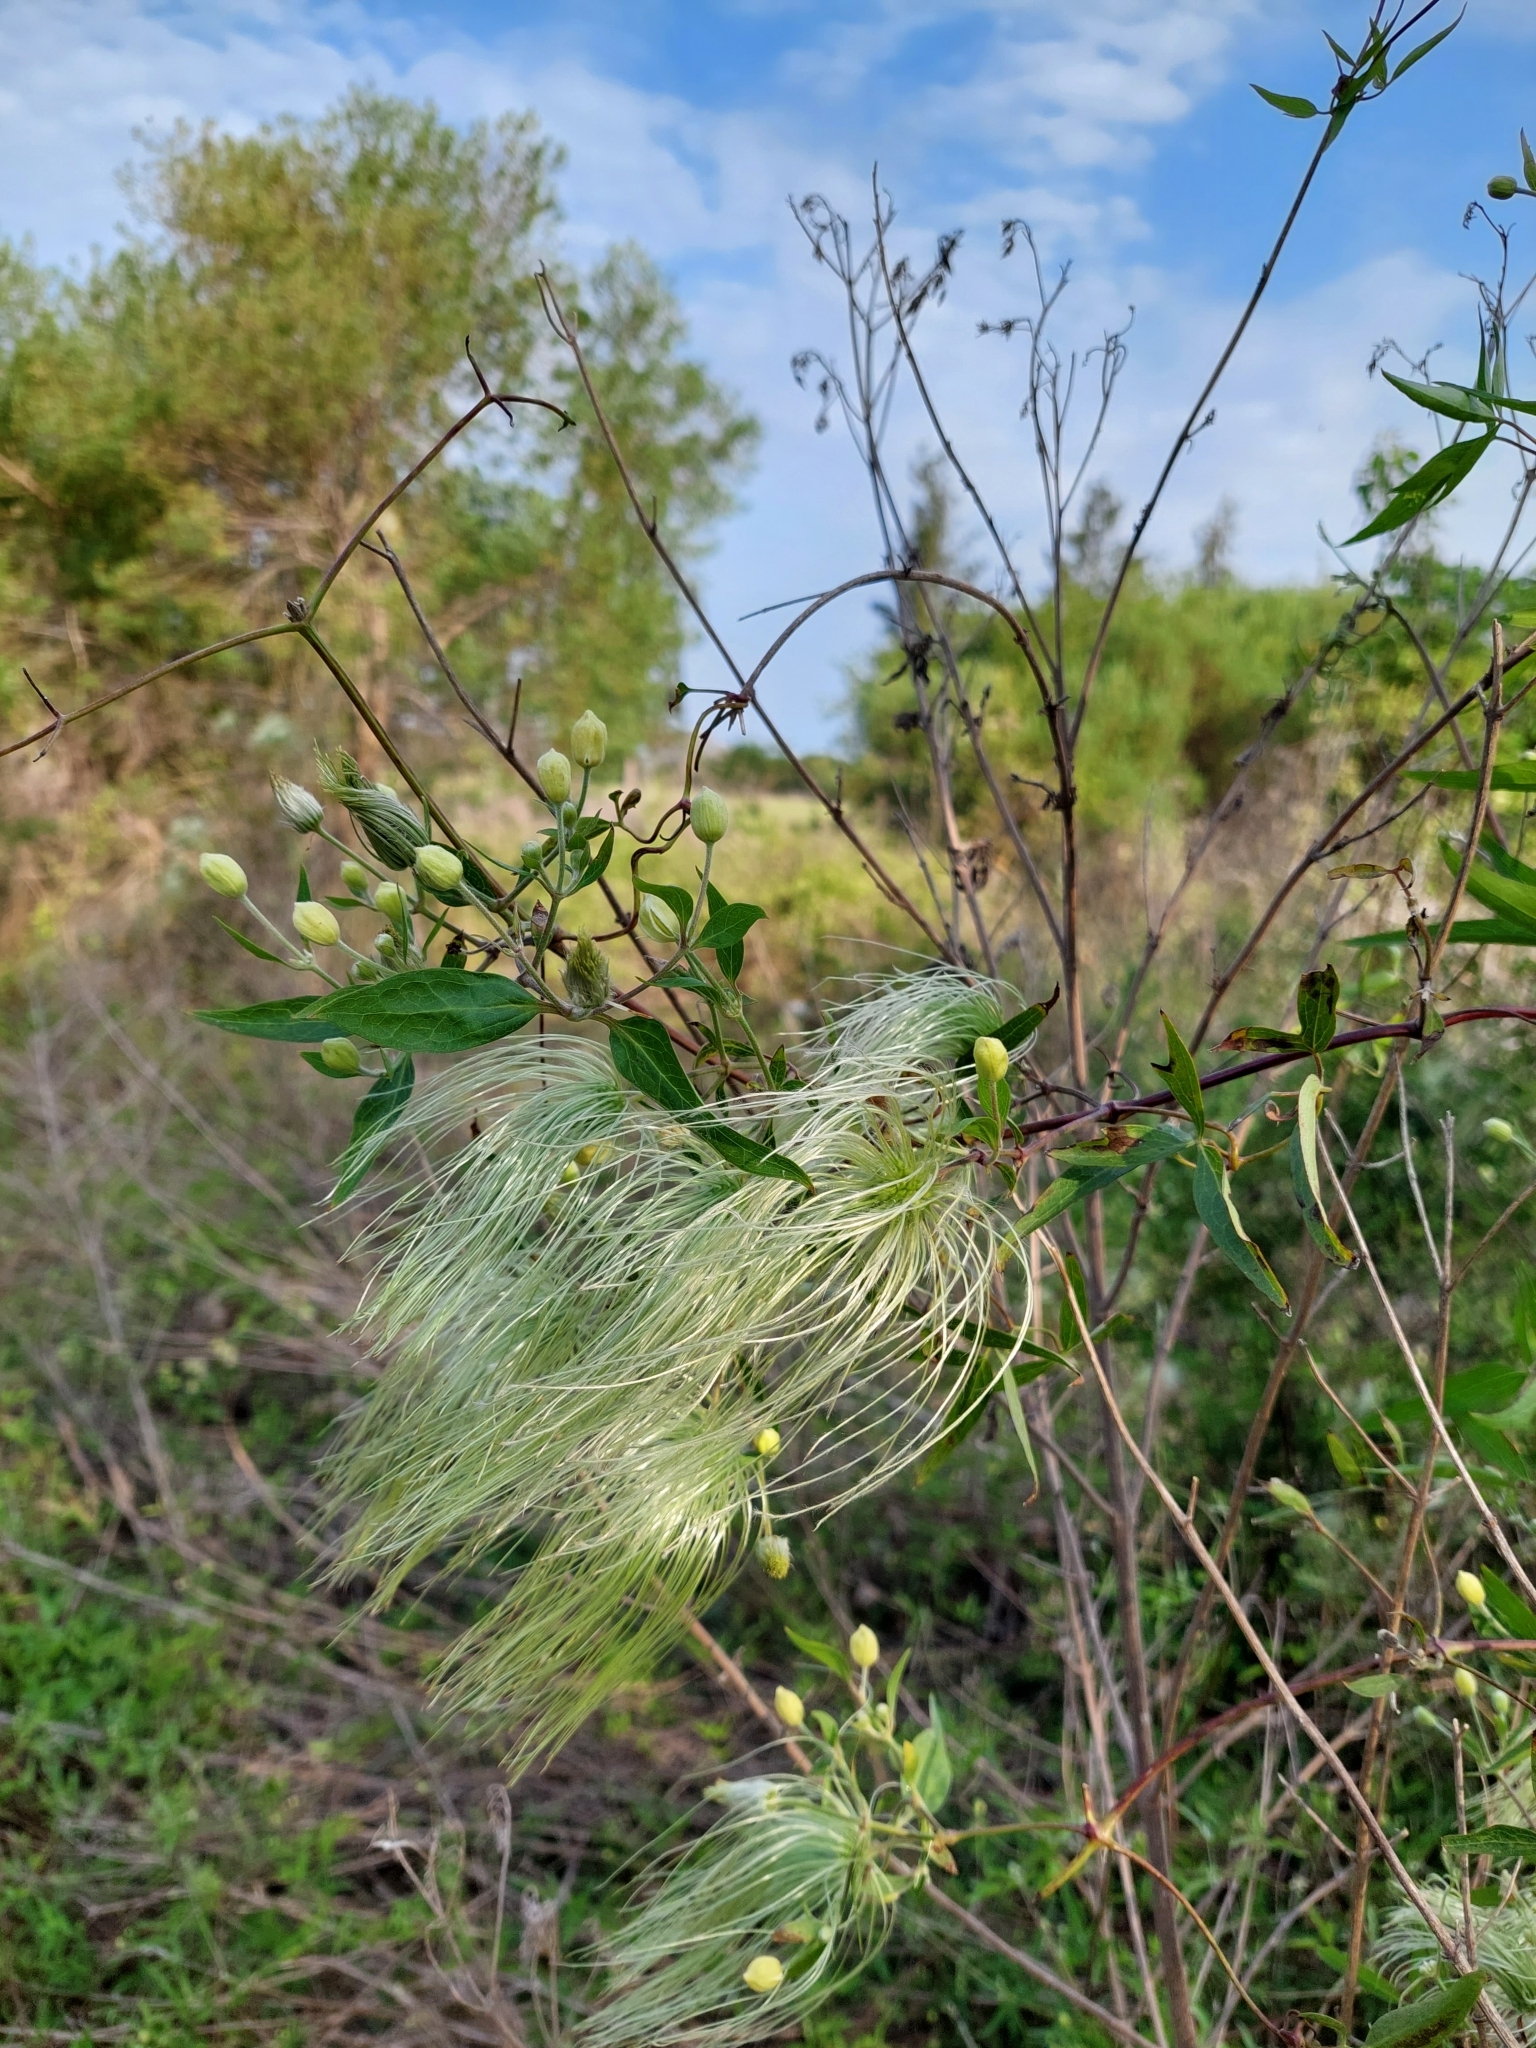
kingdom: Plantae
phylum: Tracheophyta
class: Magnoliopsida
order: Ranunculales
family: Ranunculaceae
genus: Clematis
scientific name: Clematis montevidensis
